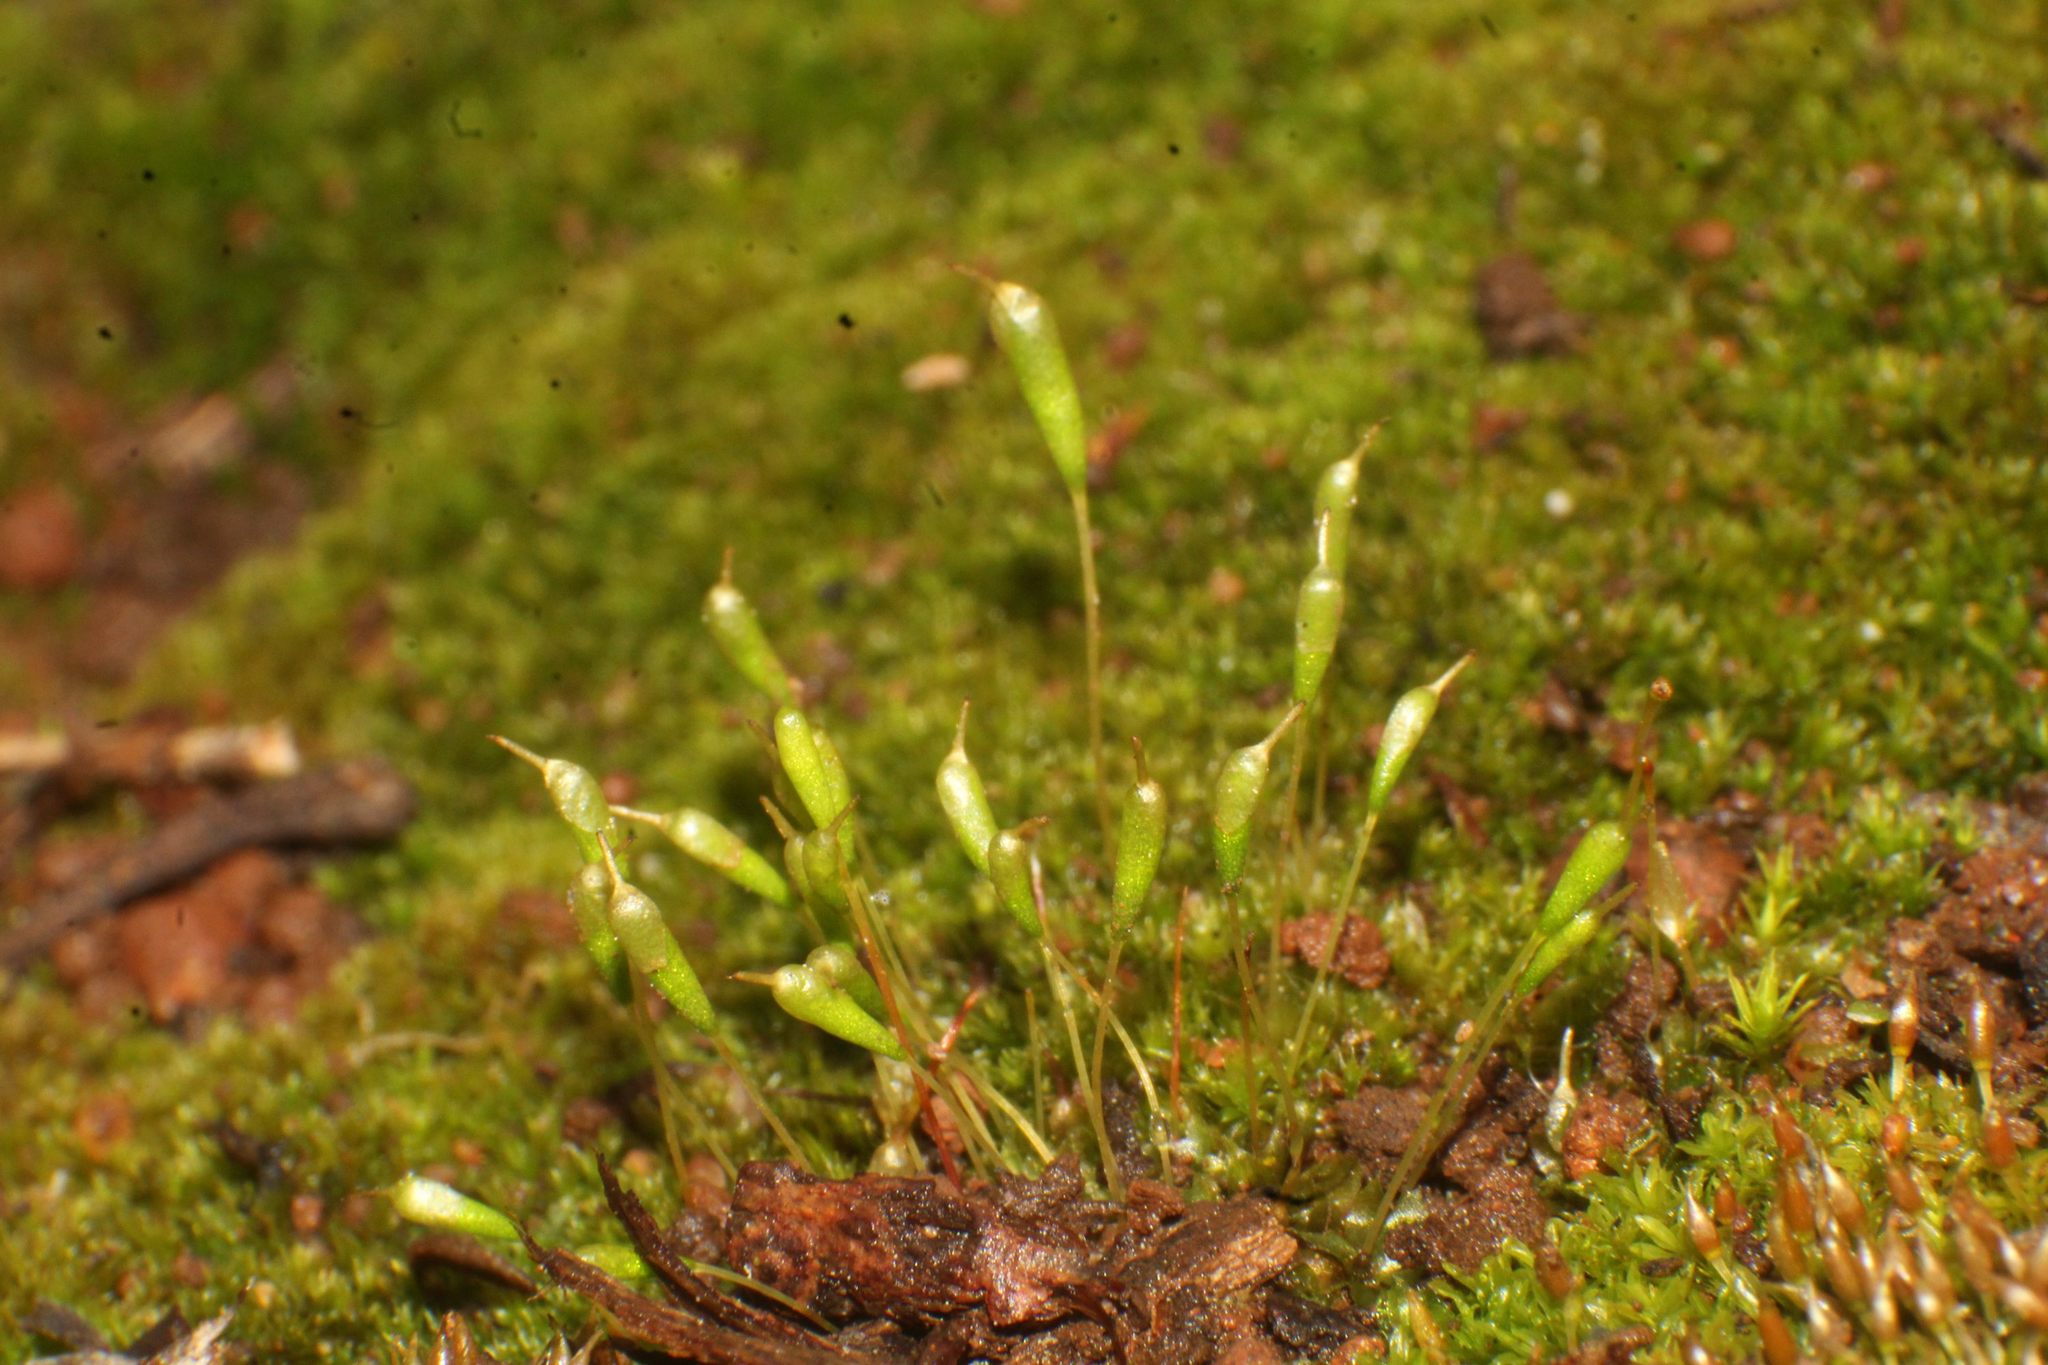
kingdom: Plantae
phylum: Bryophyta
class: Bryopsida
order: Funariales
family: Funariaceae
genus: Entosthodon
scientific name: Entosthodon apophysatus
